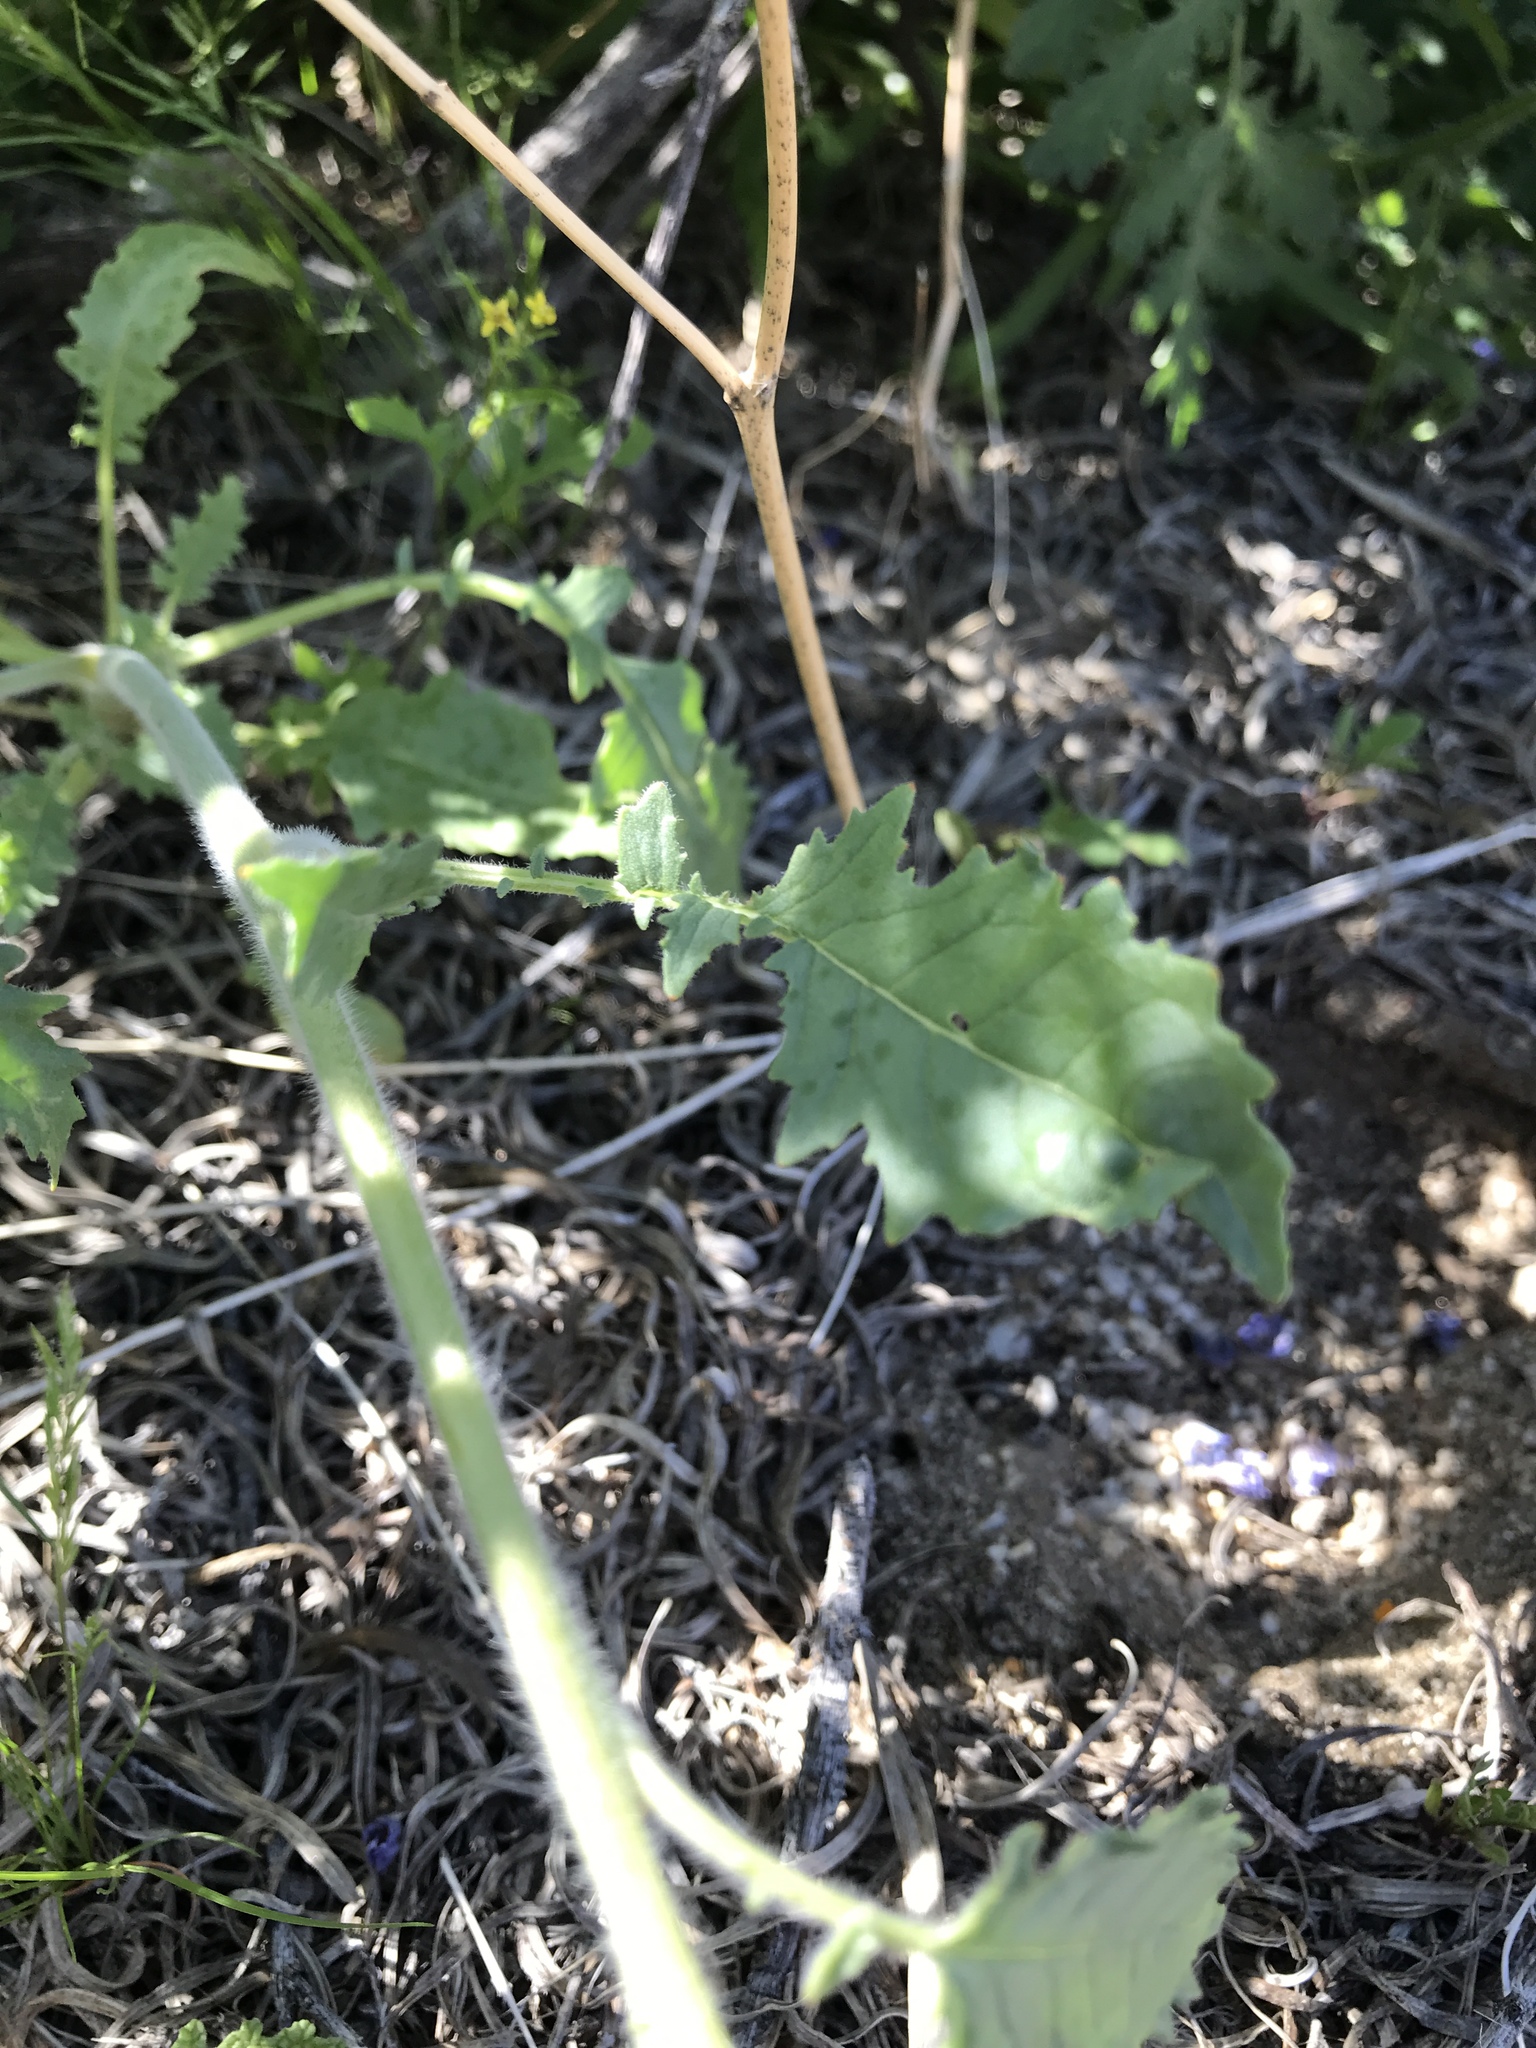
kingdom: Plantae
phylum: Tracheophyta
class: Magnoliopsida
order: Myrtales
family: Onagraceae
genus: Chylismia
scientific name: Chylismia claviformis
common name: Browneyes
